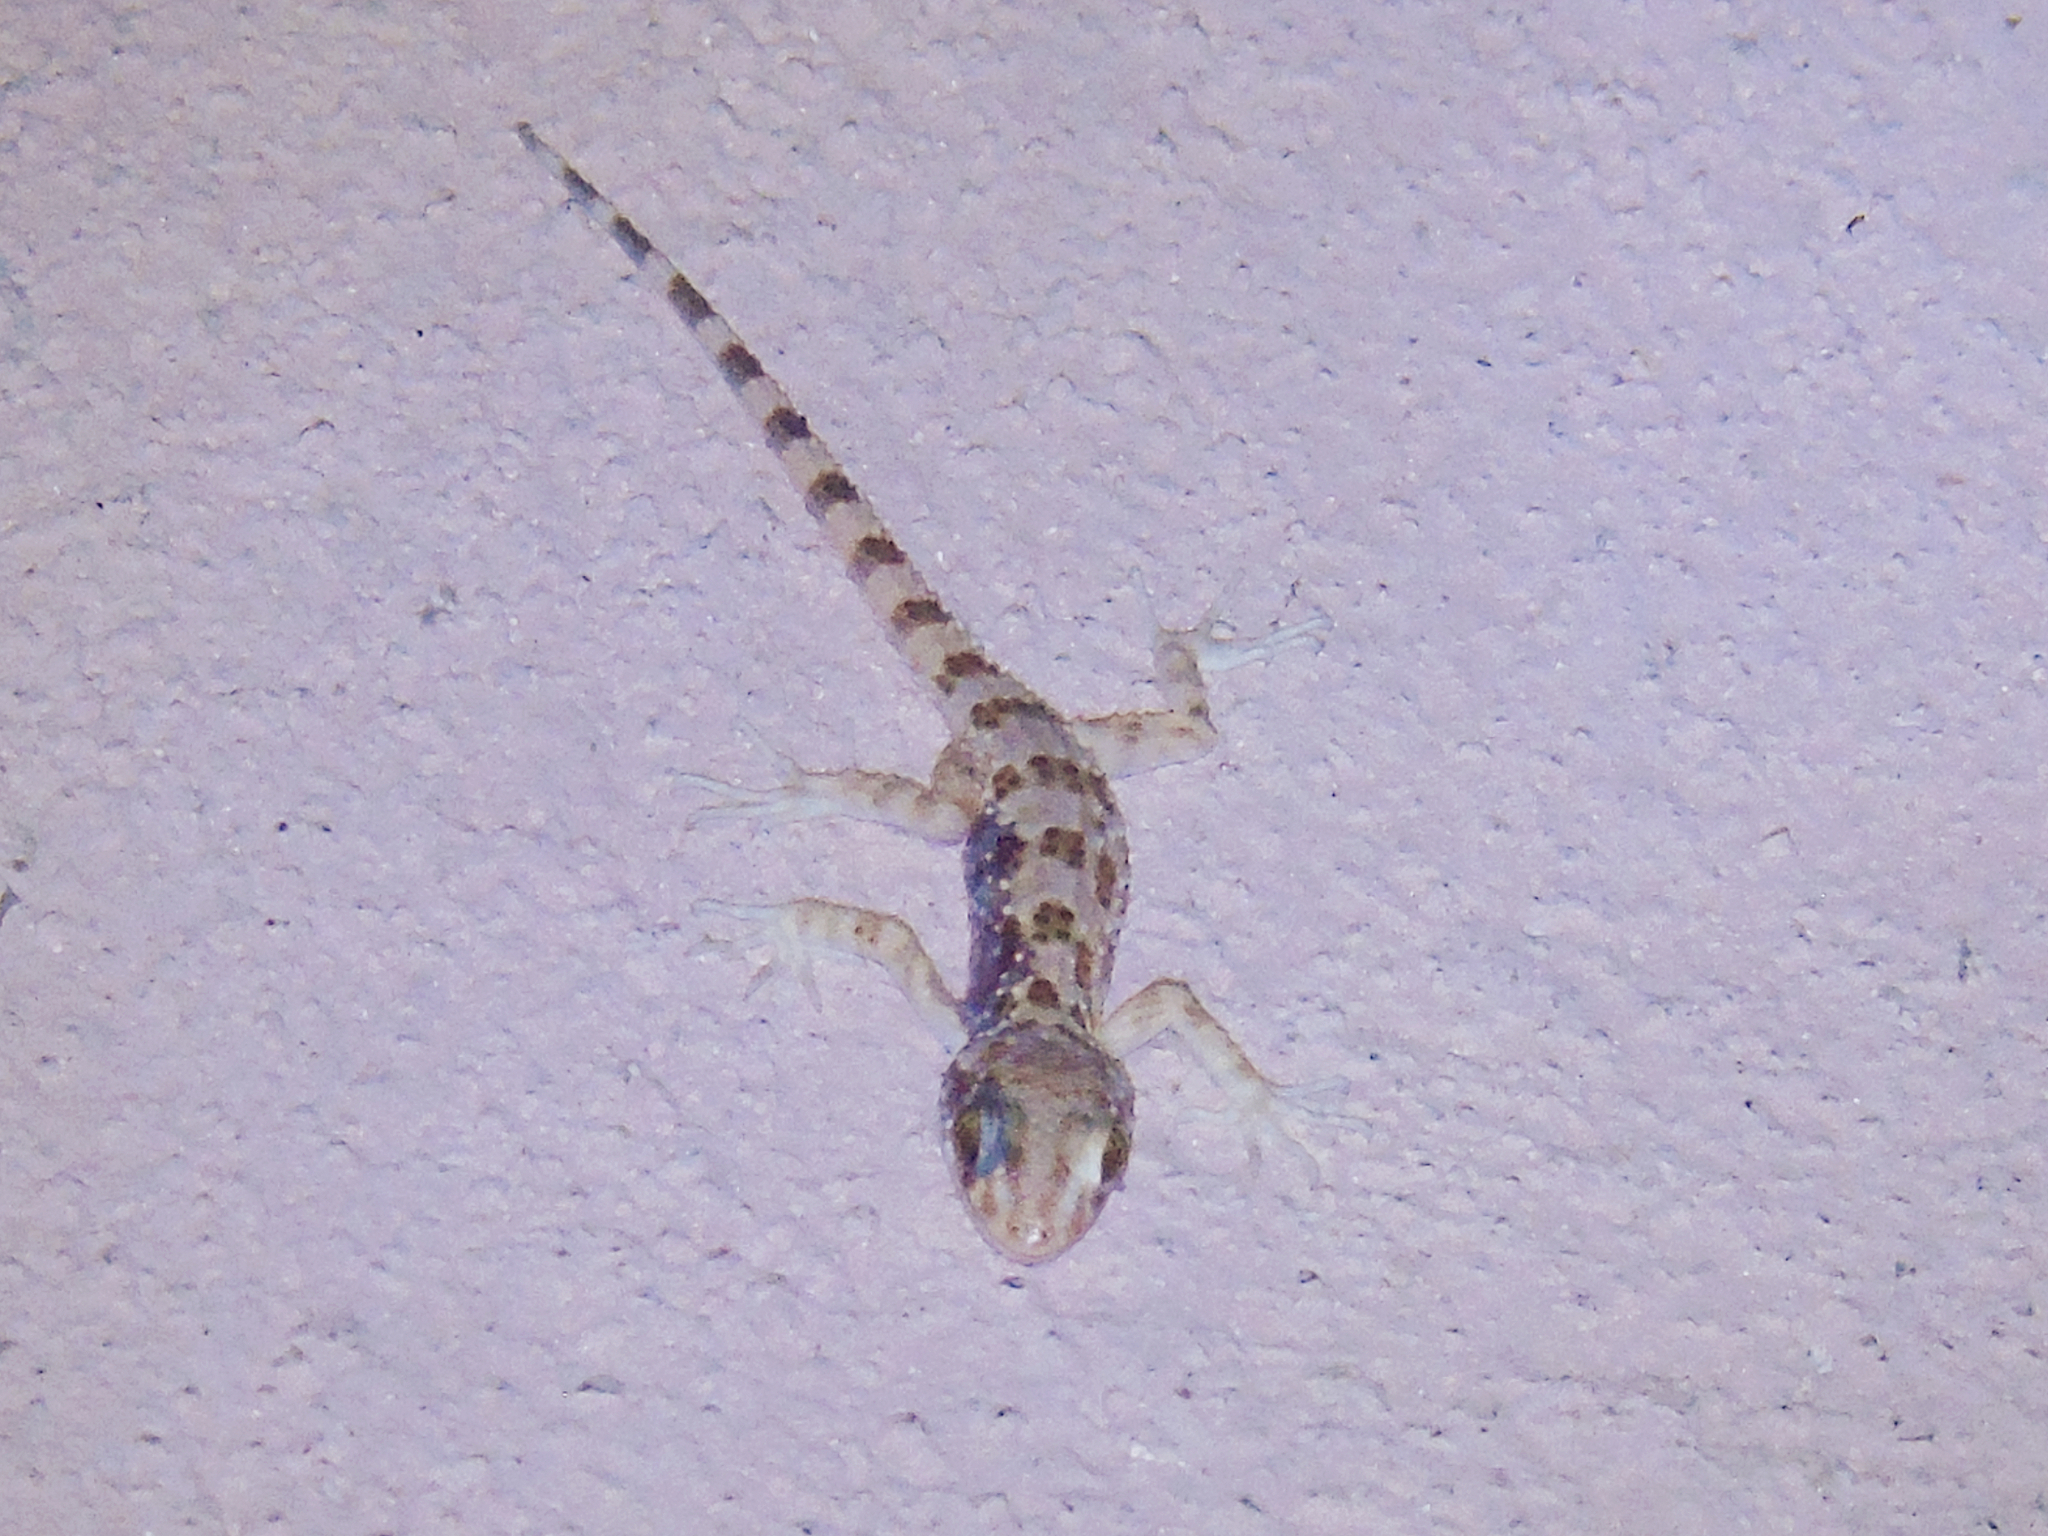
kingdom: Animalia
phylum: Chordata
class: Squamata
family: Gekkonidae
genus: Tenuidactylus
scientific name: Tenuidactylus caspius
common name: Caspian bent-toed gecko
